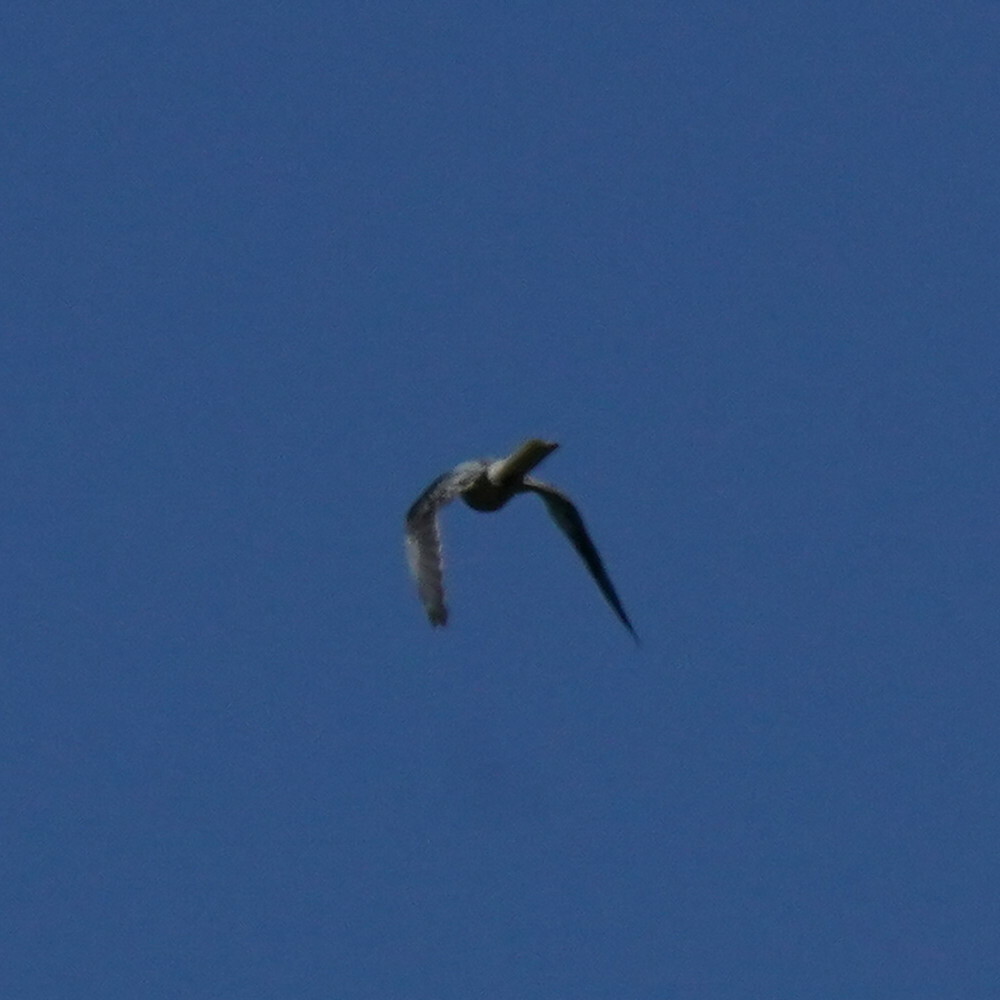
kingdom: Animalia
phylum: Chordata
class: Aves
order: Accipitriformes
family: Accipitridae
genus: Elanus
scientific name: Elanus leucurus
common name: White-tailed kite
